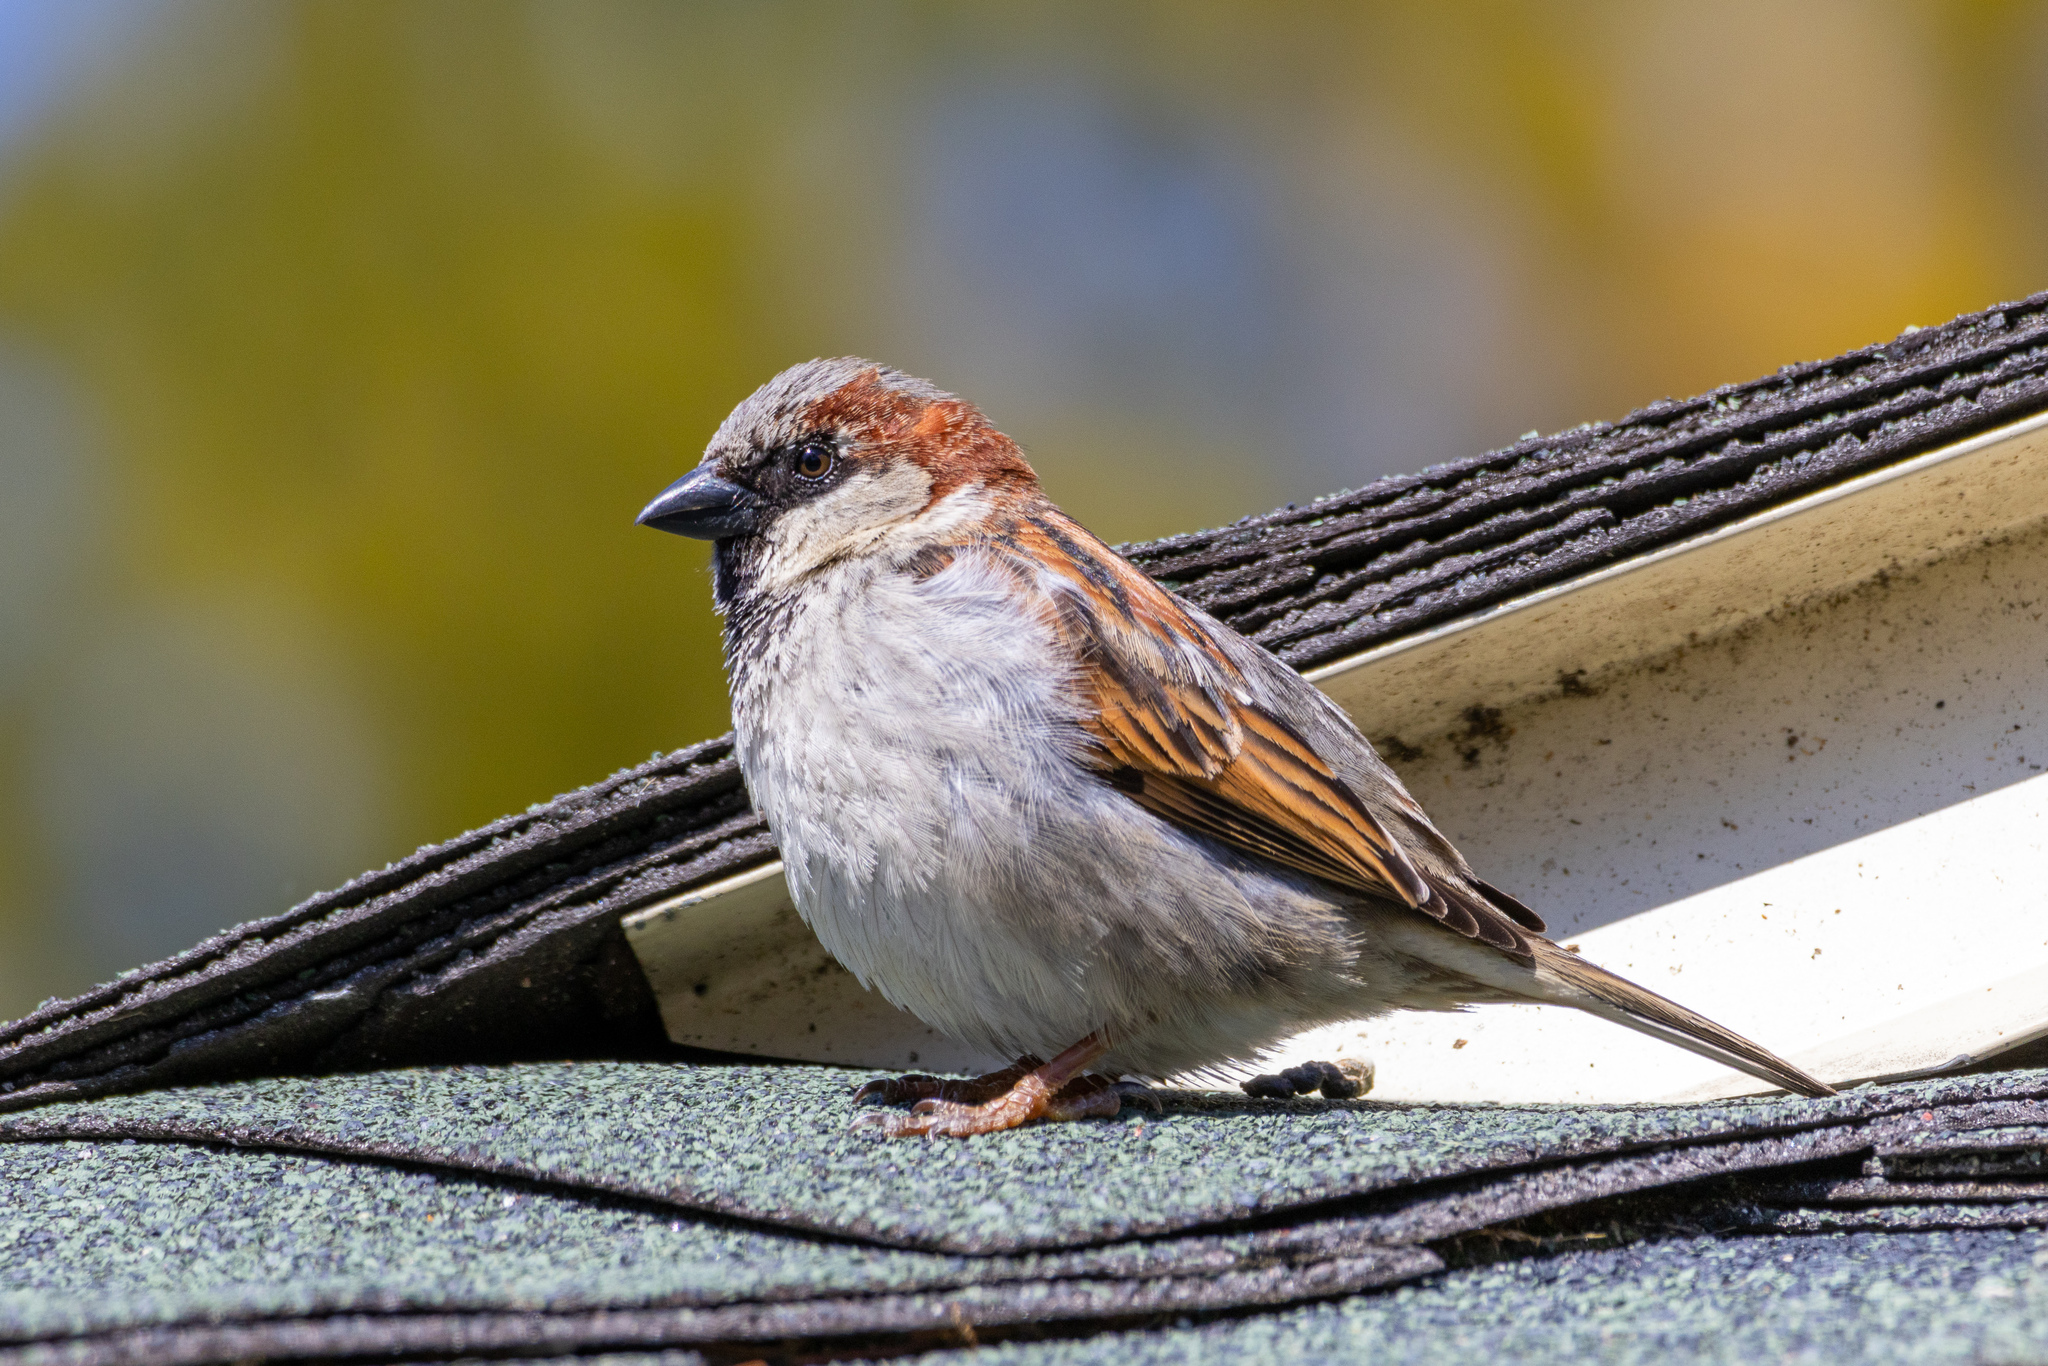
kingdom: Animalia
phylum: Chordata
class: Aves
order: Passeriformes
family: Passeridae
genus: Passer
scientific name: Passer domesticus
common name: House sparrow
